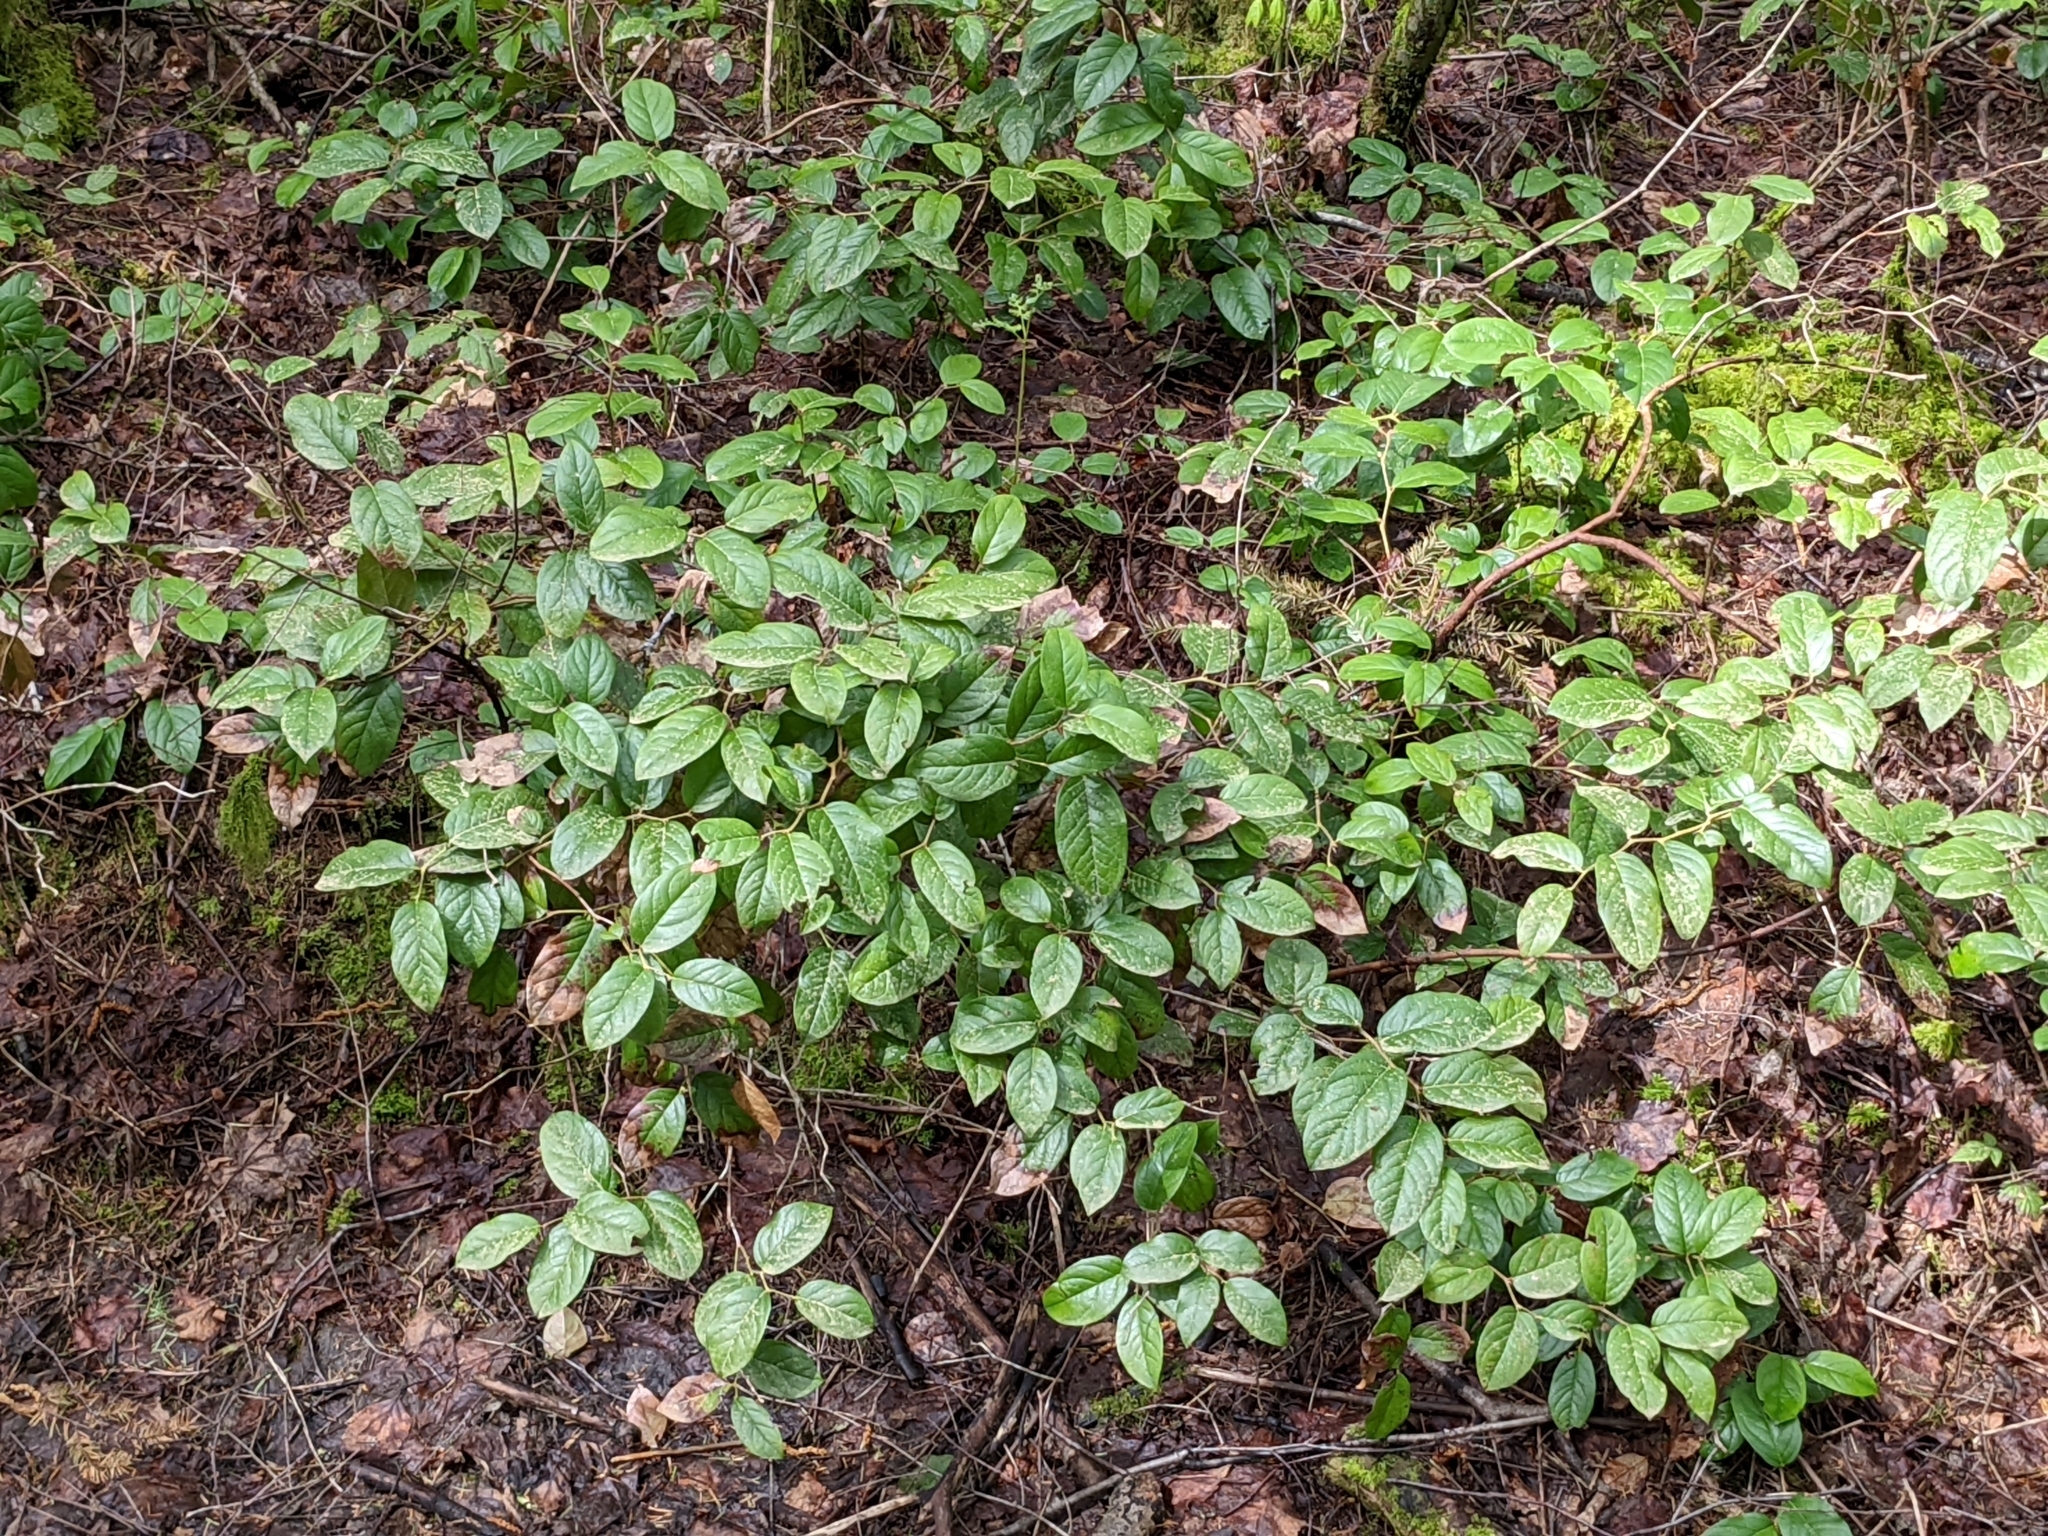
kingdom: Plantae
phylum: Tracheophyta
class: Magnoliopsida
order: Ericales
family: Ericaceae
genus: Gaultheria
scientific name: Gaultheria shallon
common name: Shallon
